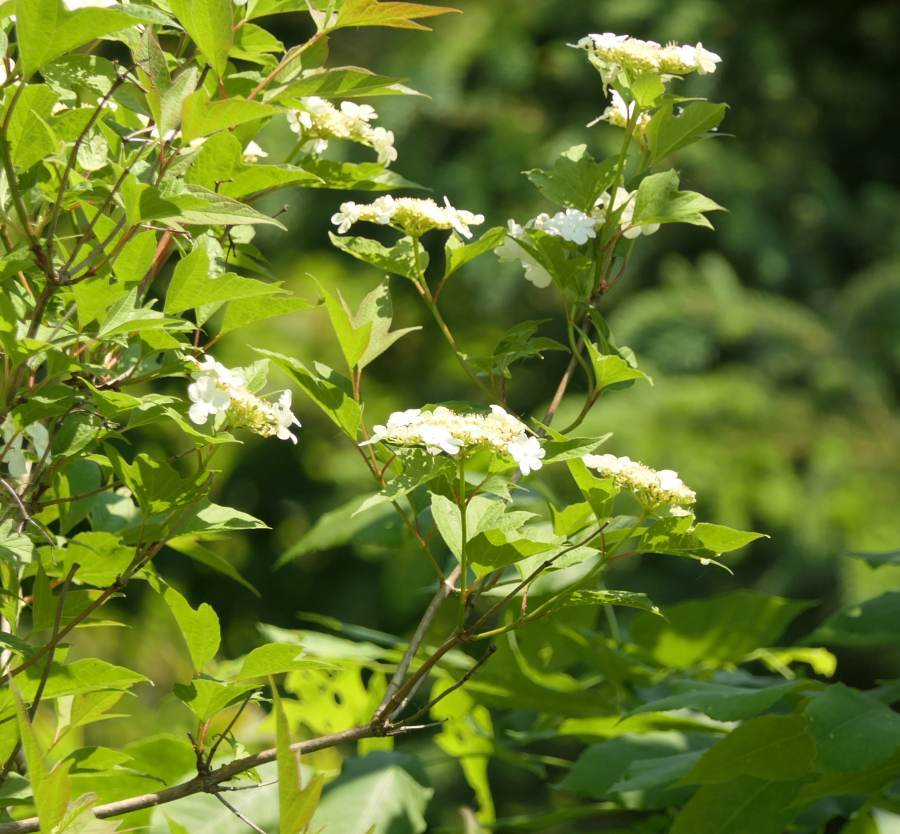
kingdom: Plantae
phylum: Tracheophyta
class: Magnoliopsida
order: Dipsacales
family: Viburnaceae
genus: Viburnum
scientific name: Viburnum opulus
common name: Guelder-rose
